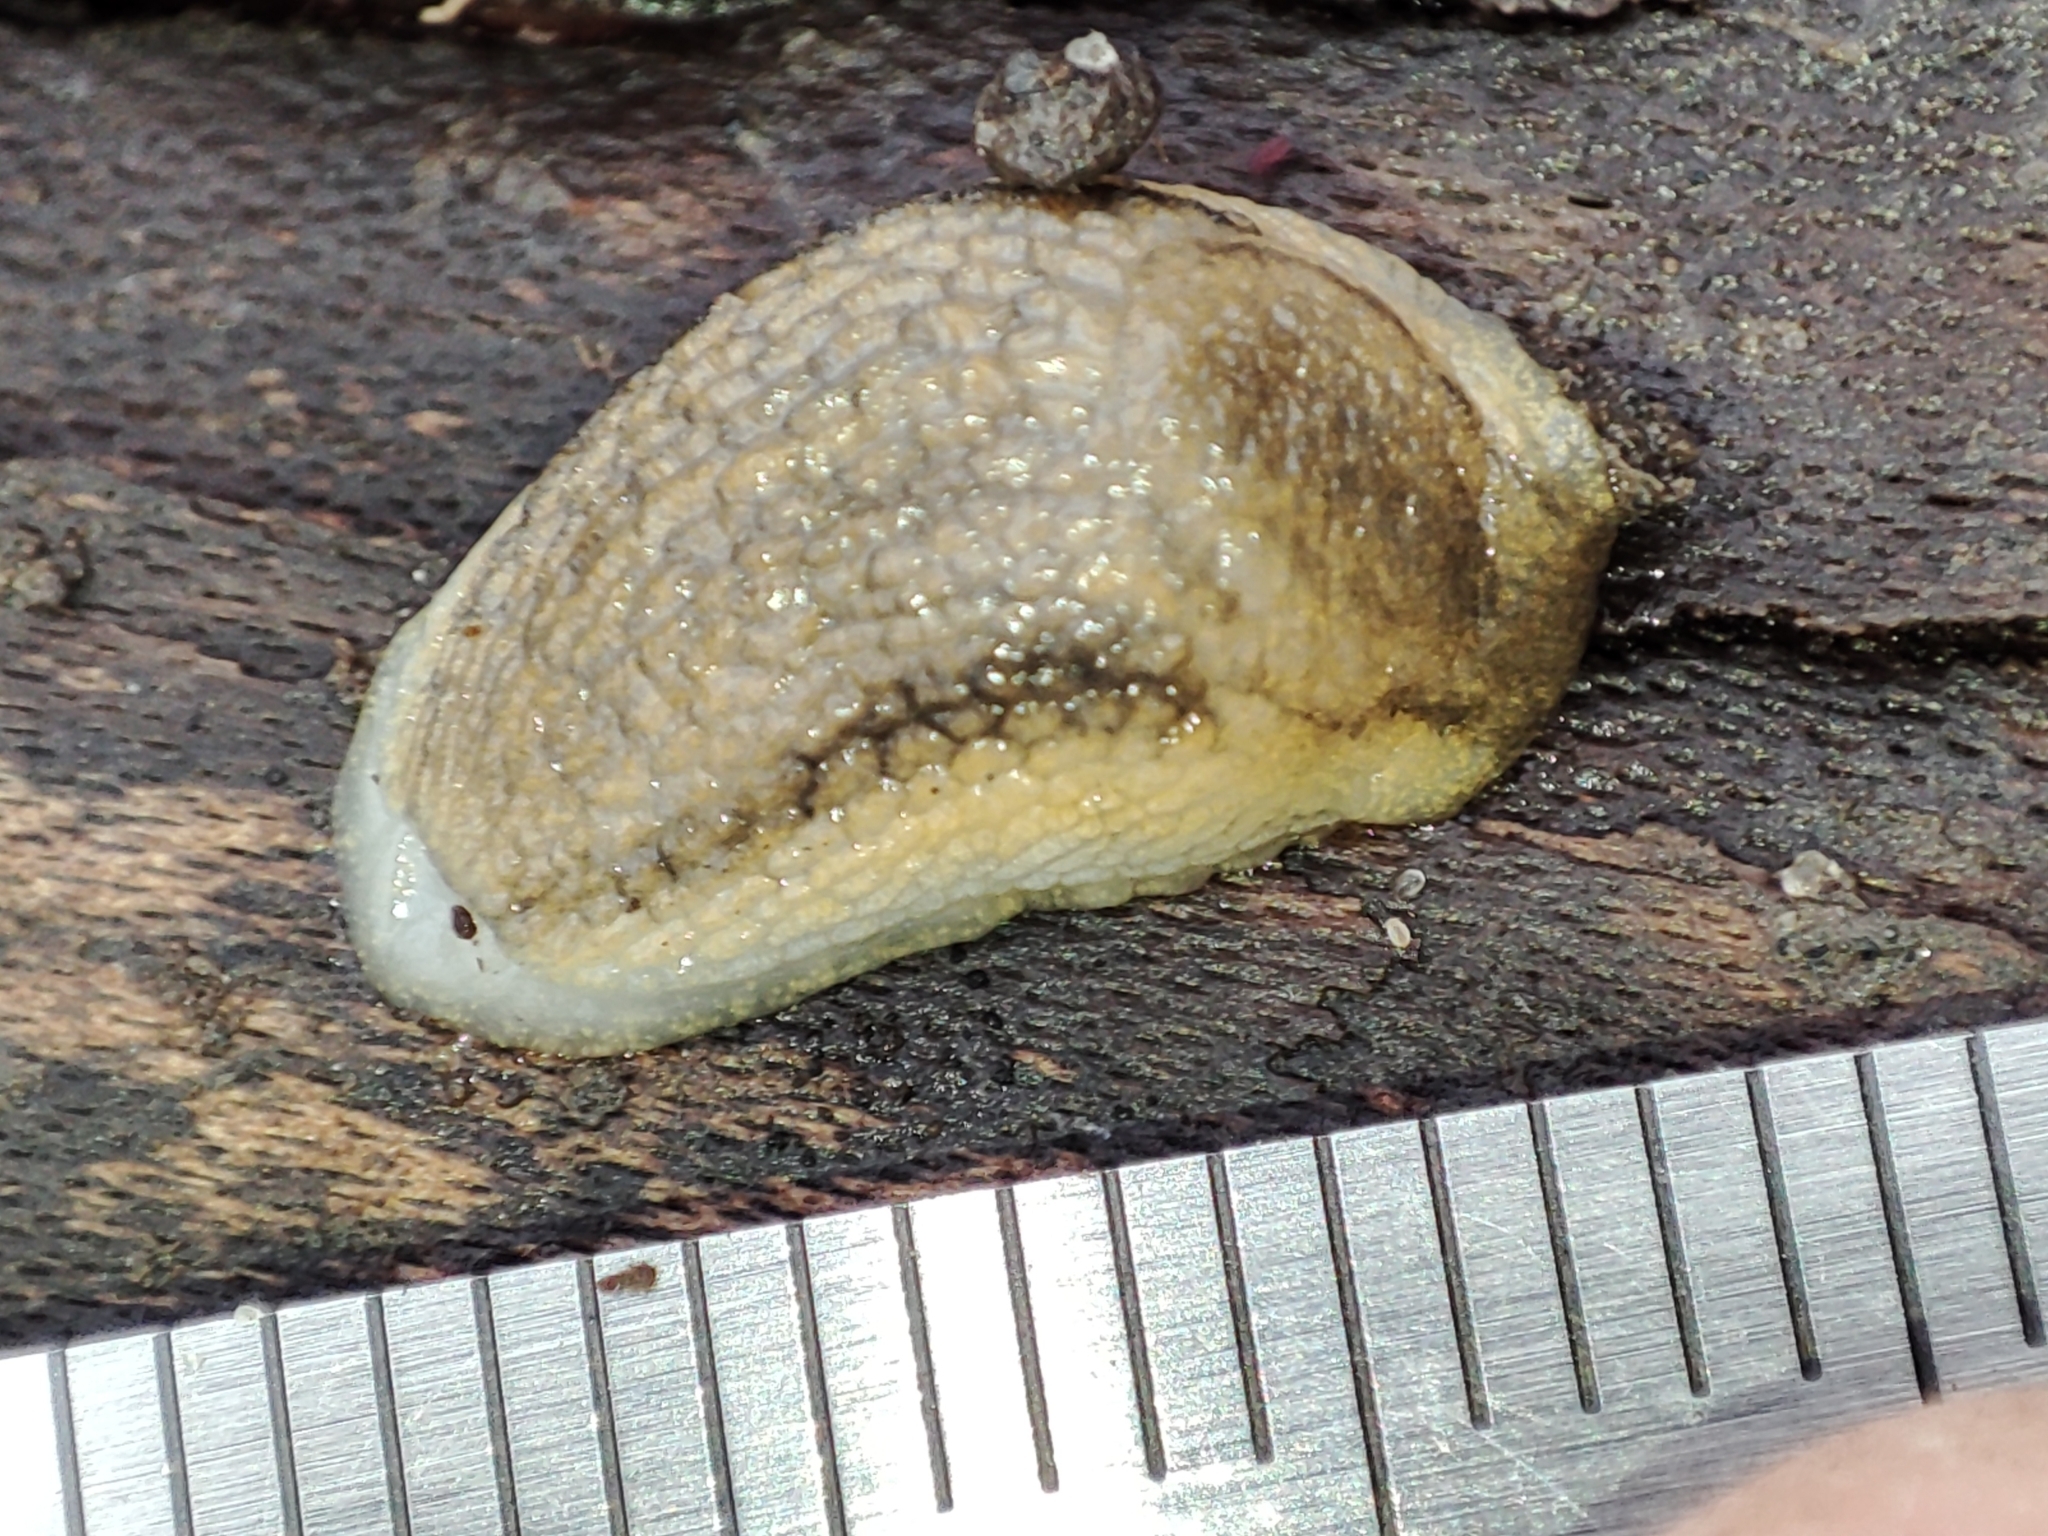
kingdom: Animalia
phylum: Mollusca
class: Gastropoda
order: Stylommatophora
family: Arionidae
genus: Arion
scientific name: Arion fasciatus
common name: Orange-banded arion
